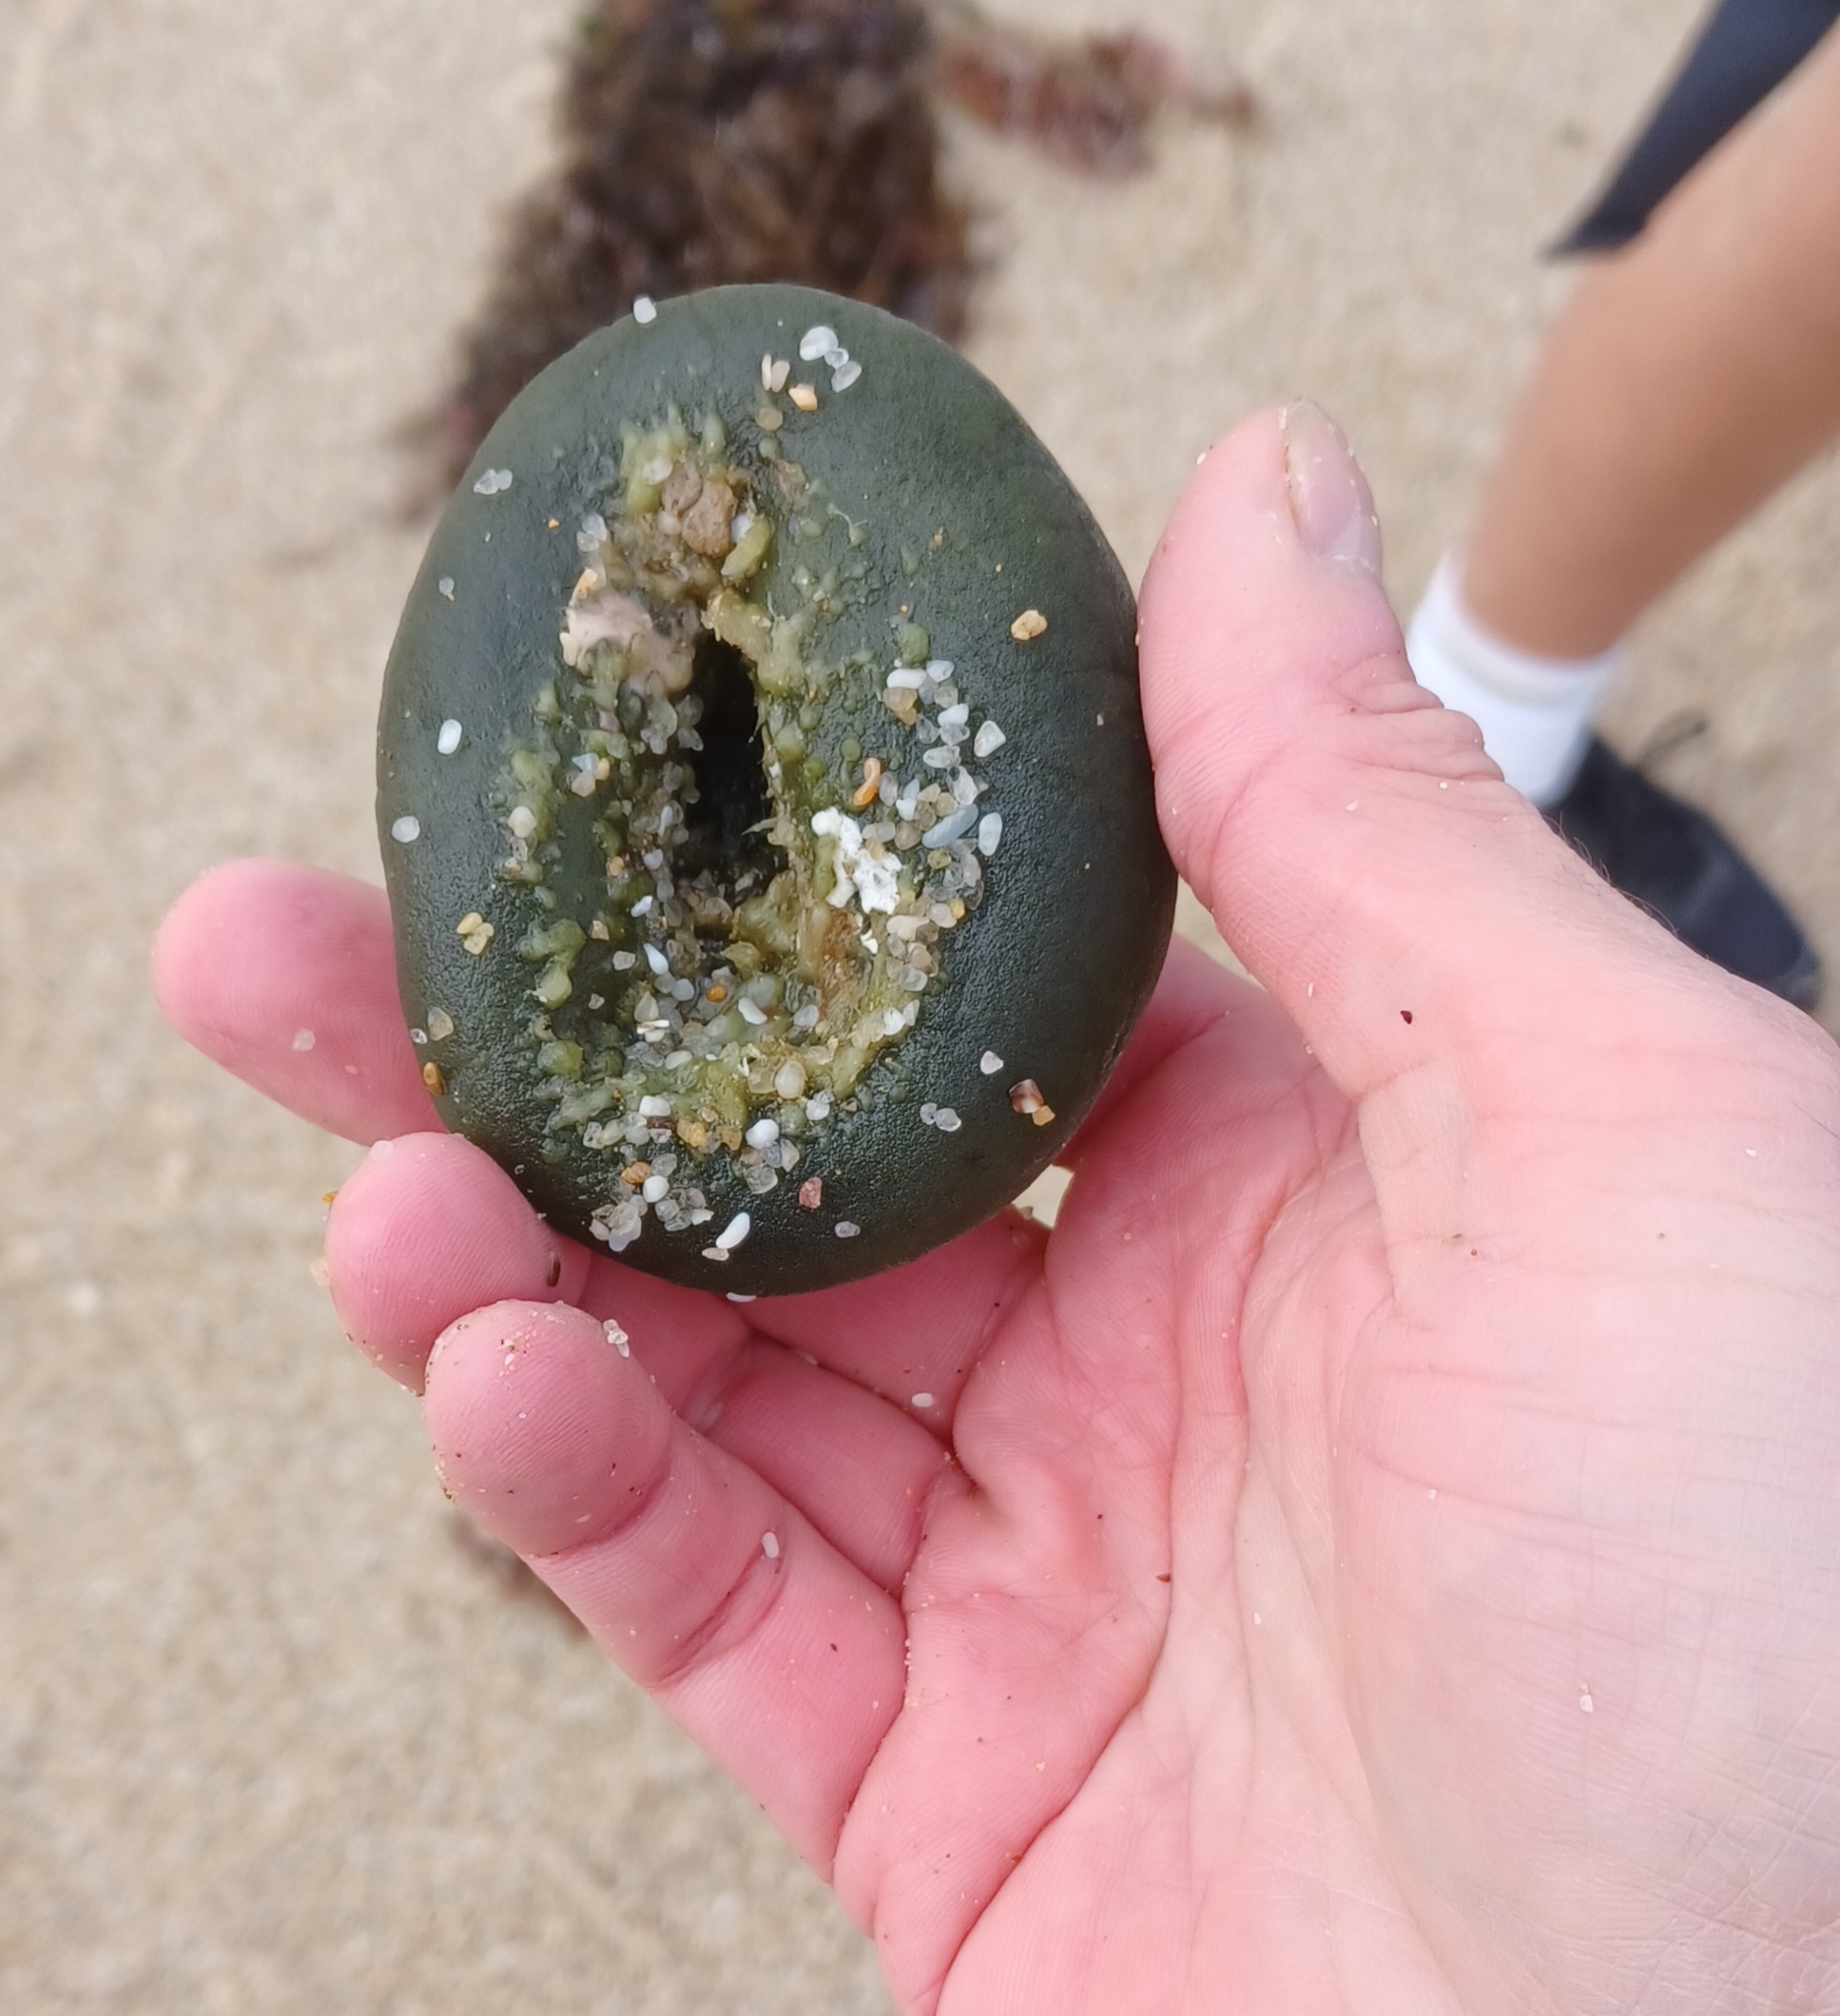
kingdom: Plantae
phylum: Chlorophyta
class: Ulvophyceae
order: Bryopsidales
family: Codiaceae
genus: Codium
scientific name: Codium
